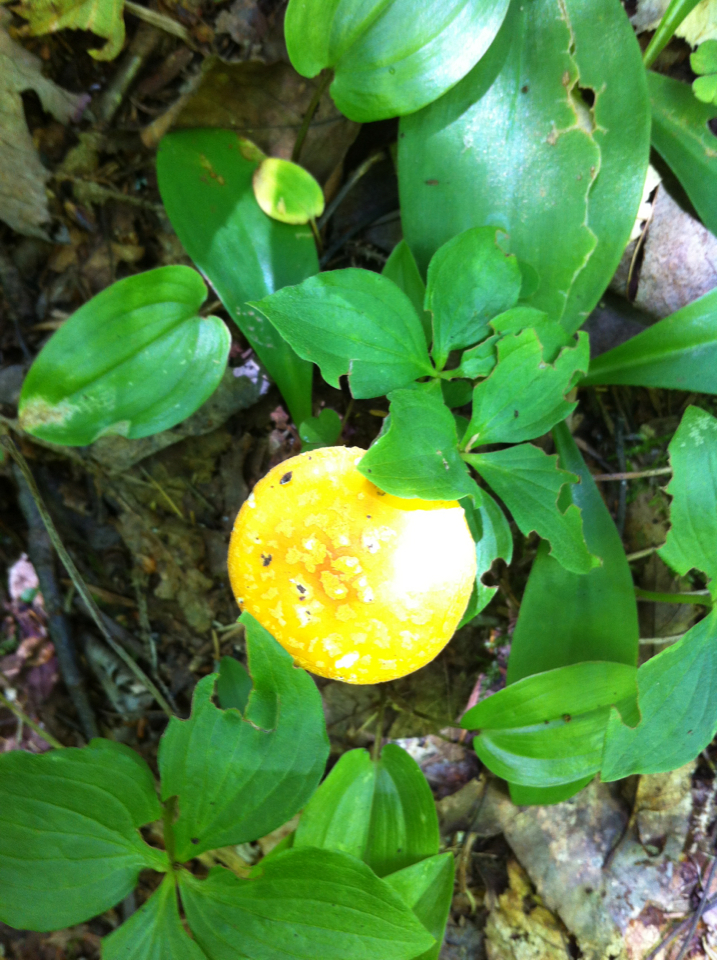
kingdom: Fungi
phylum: Basidiomycota
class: Agaricomycetes
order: Agaricales
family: Amanitaceae
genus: Amanita
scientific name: Amanita
